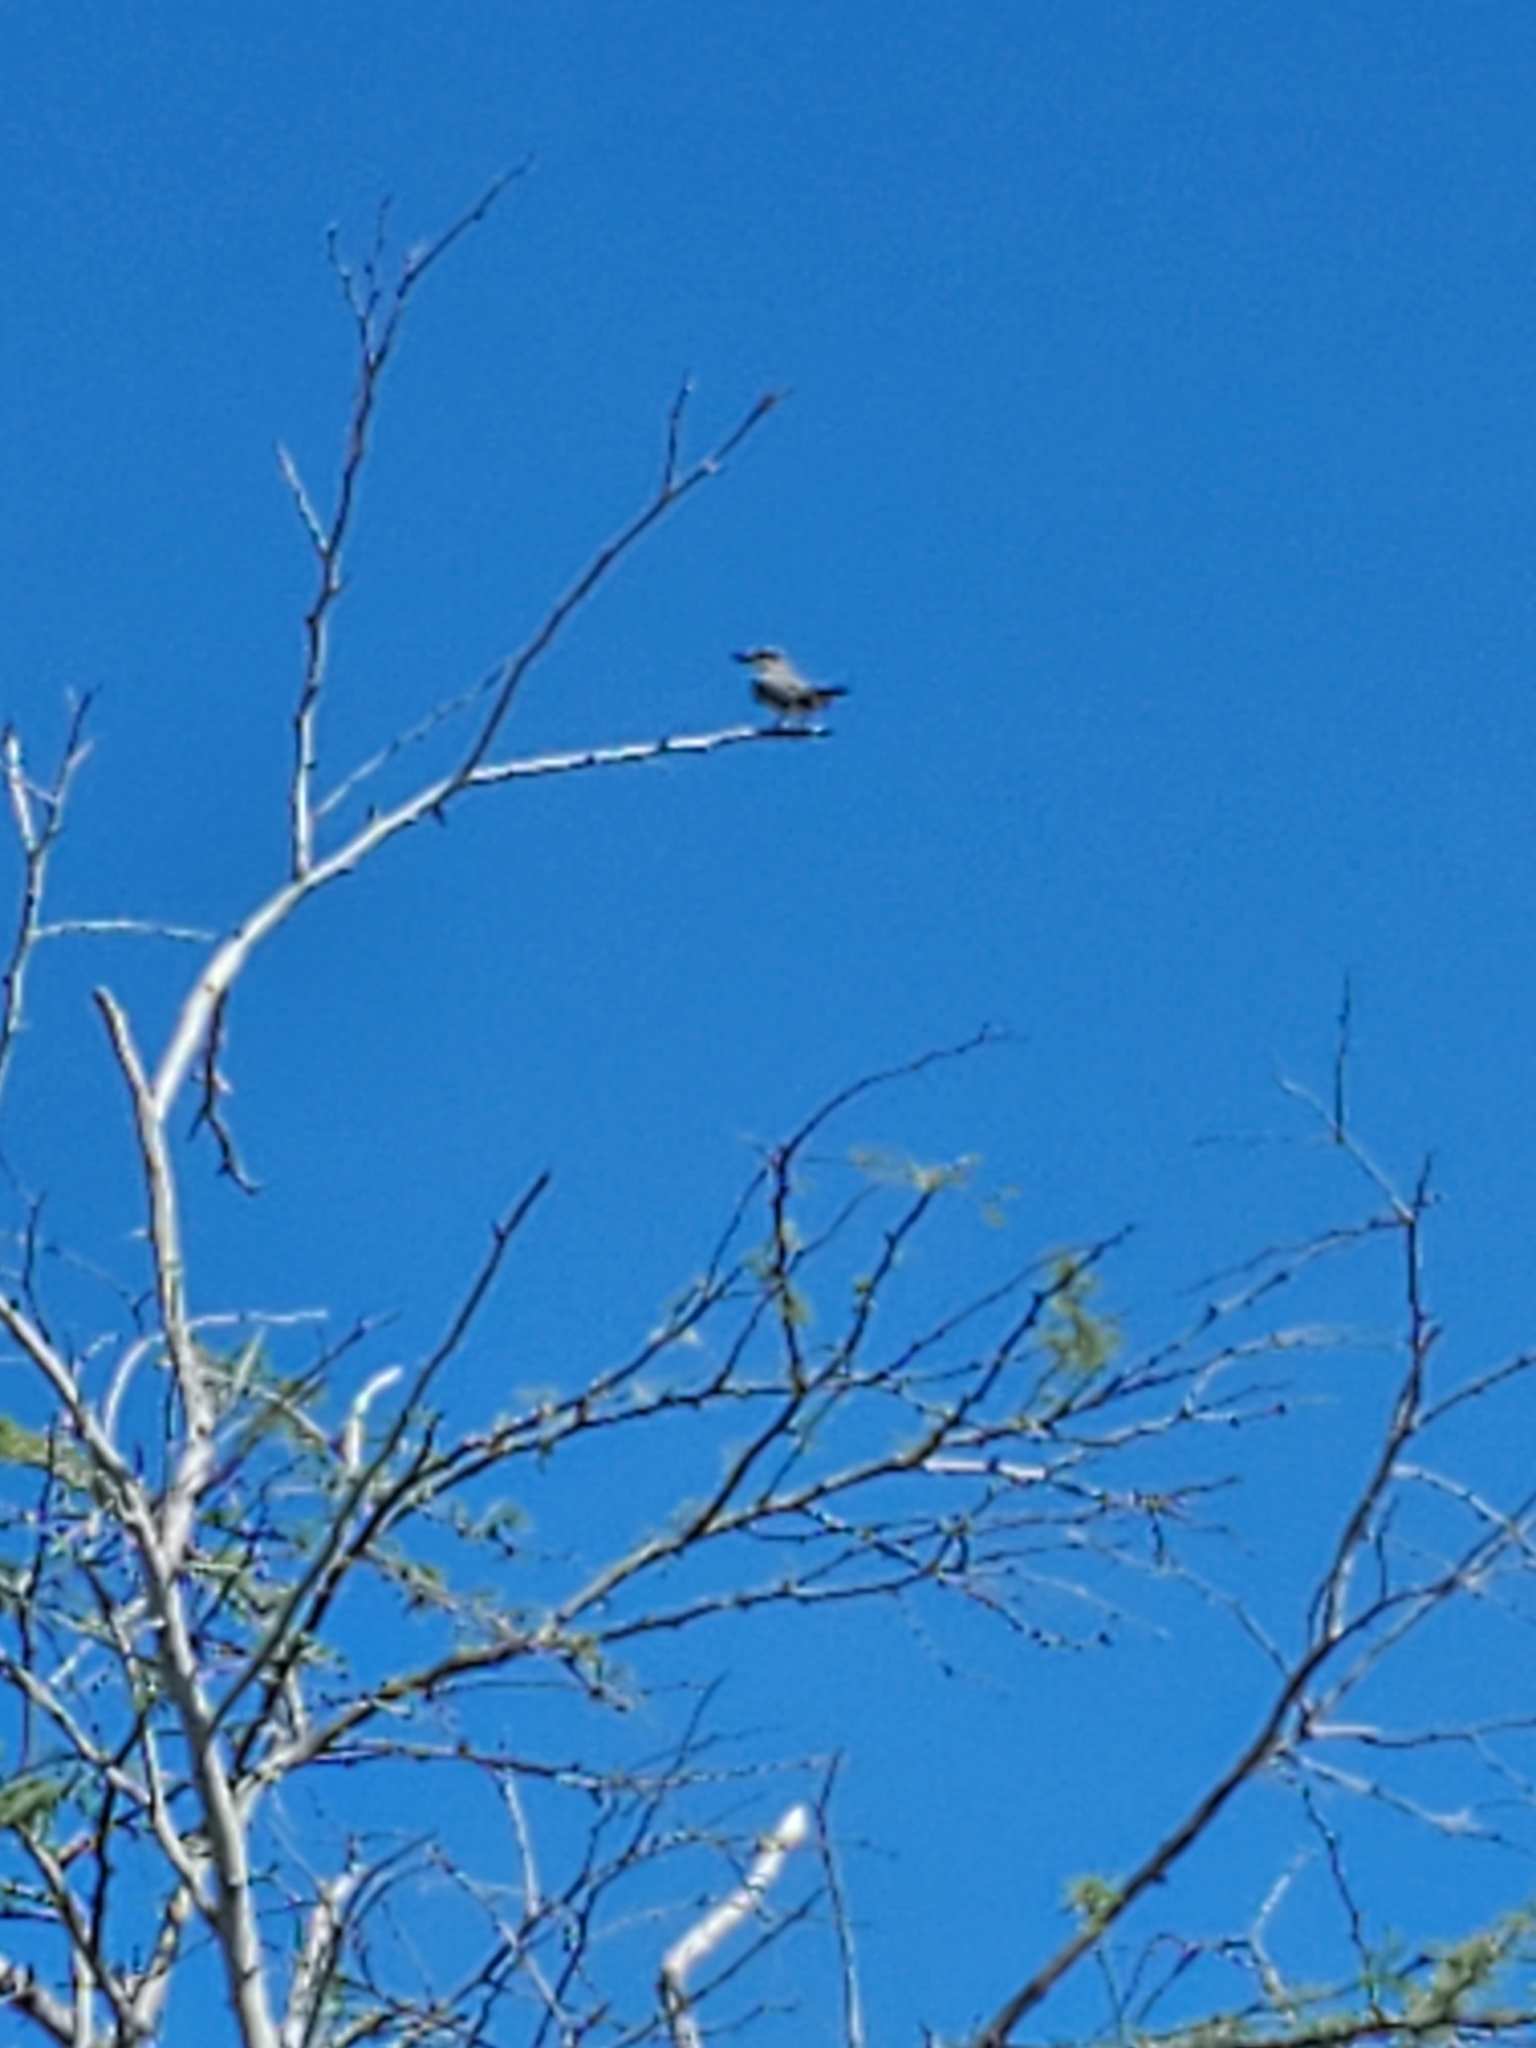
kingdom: Animalia
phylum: Chordata
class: Aves
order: Passeriformes
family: Tyrannidae
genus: Tyrannus
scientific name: Tyrannus dominicensis
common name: Gray kingbird
